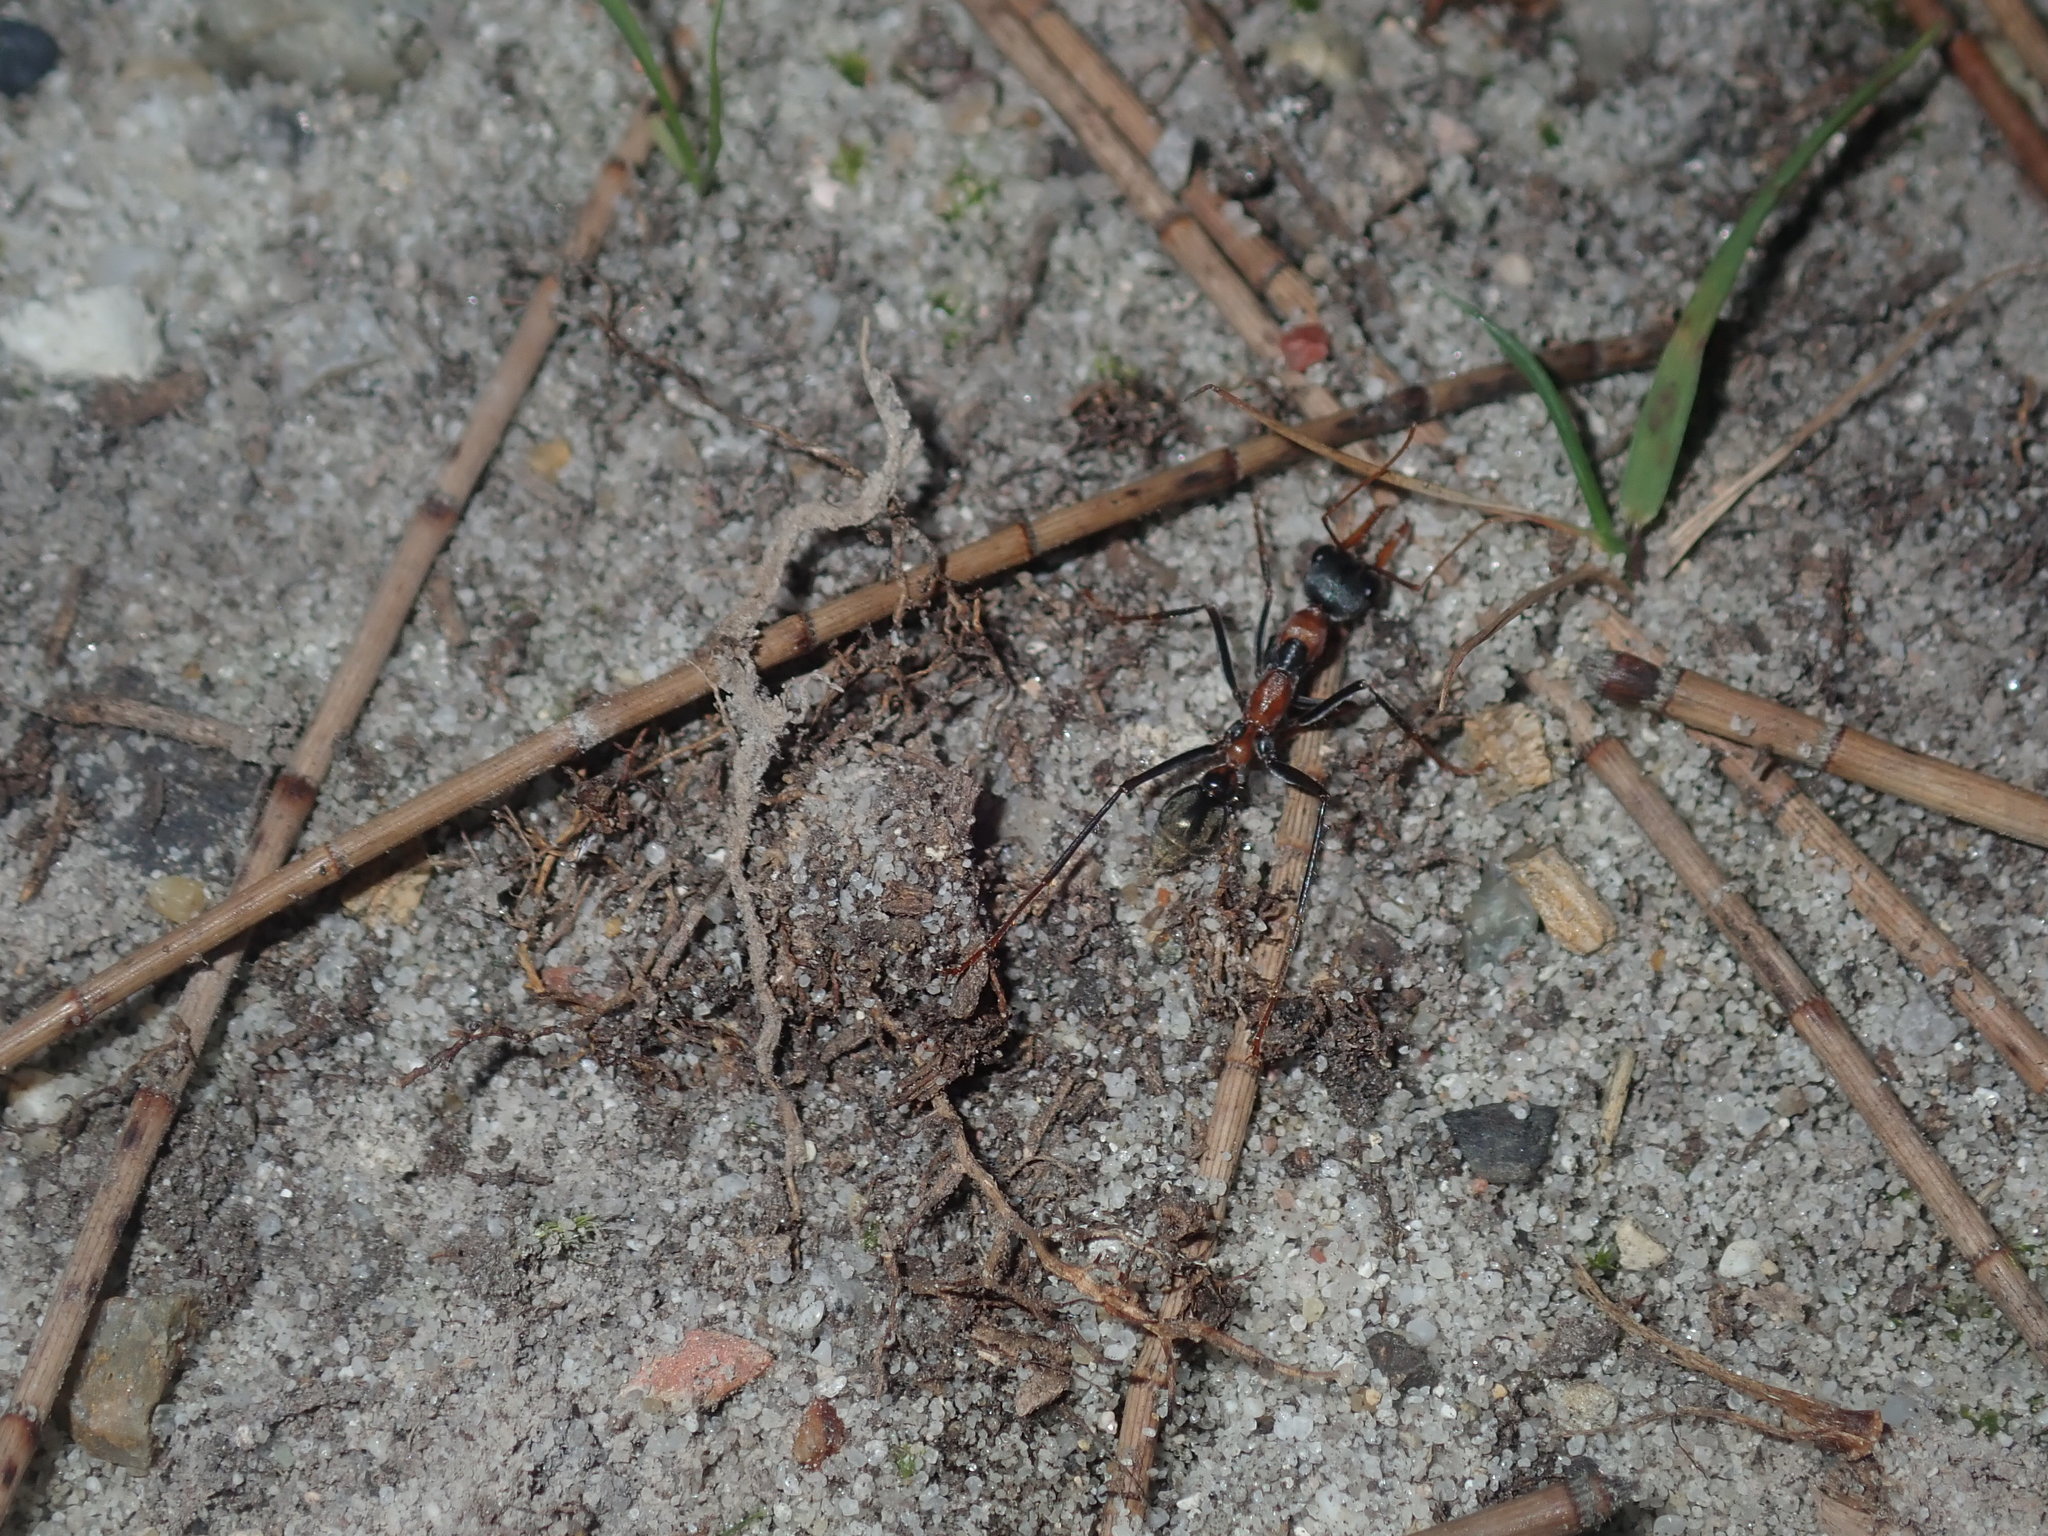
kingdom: Animalia
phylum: Arthropoda
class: Insecta
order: Hymenoptera
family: Formicidae
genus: Myrmecia
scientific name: Myrmecia nigrocincta
